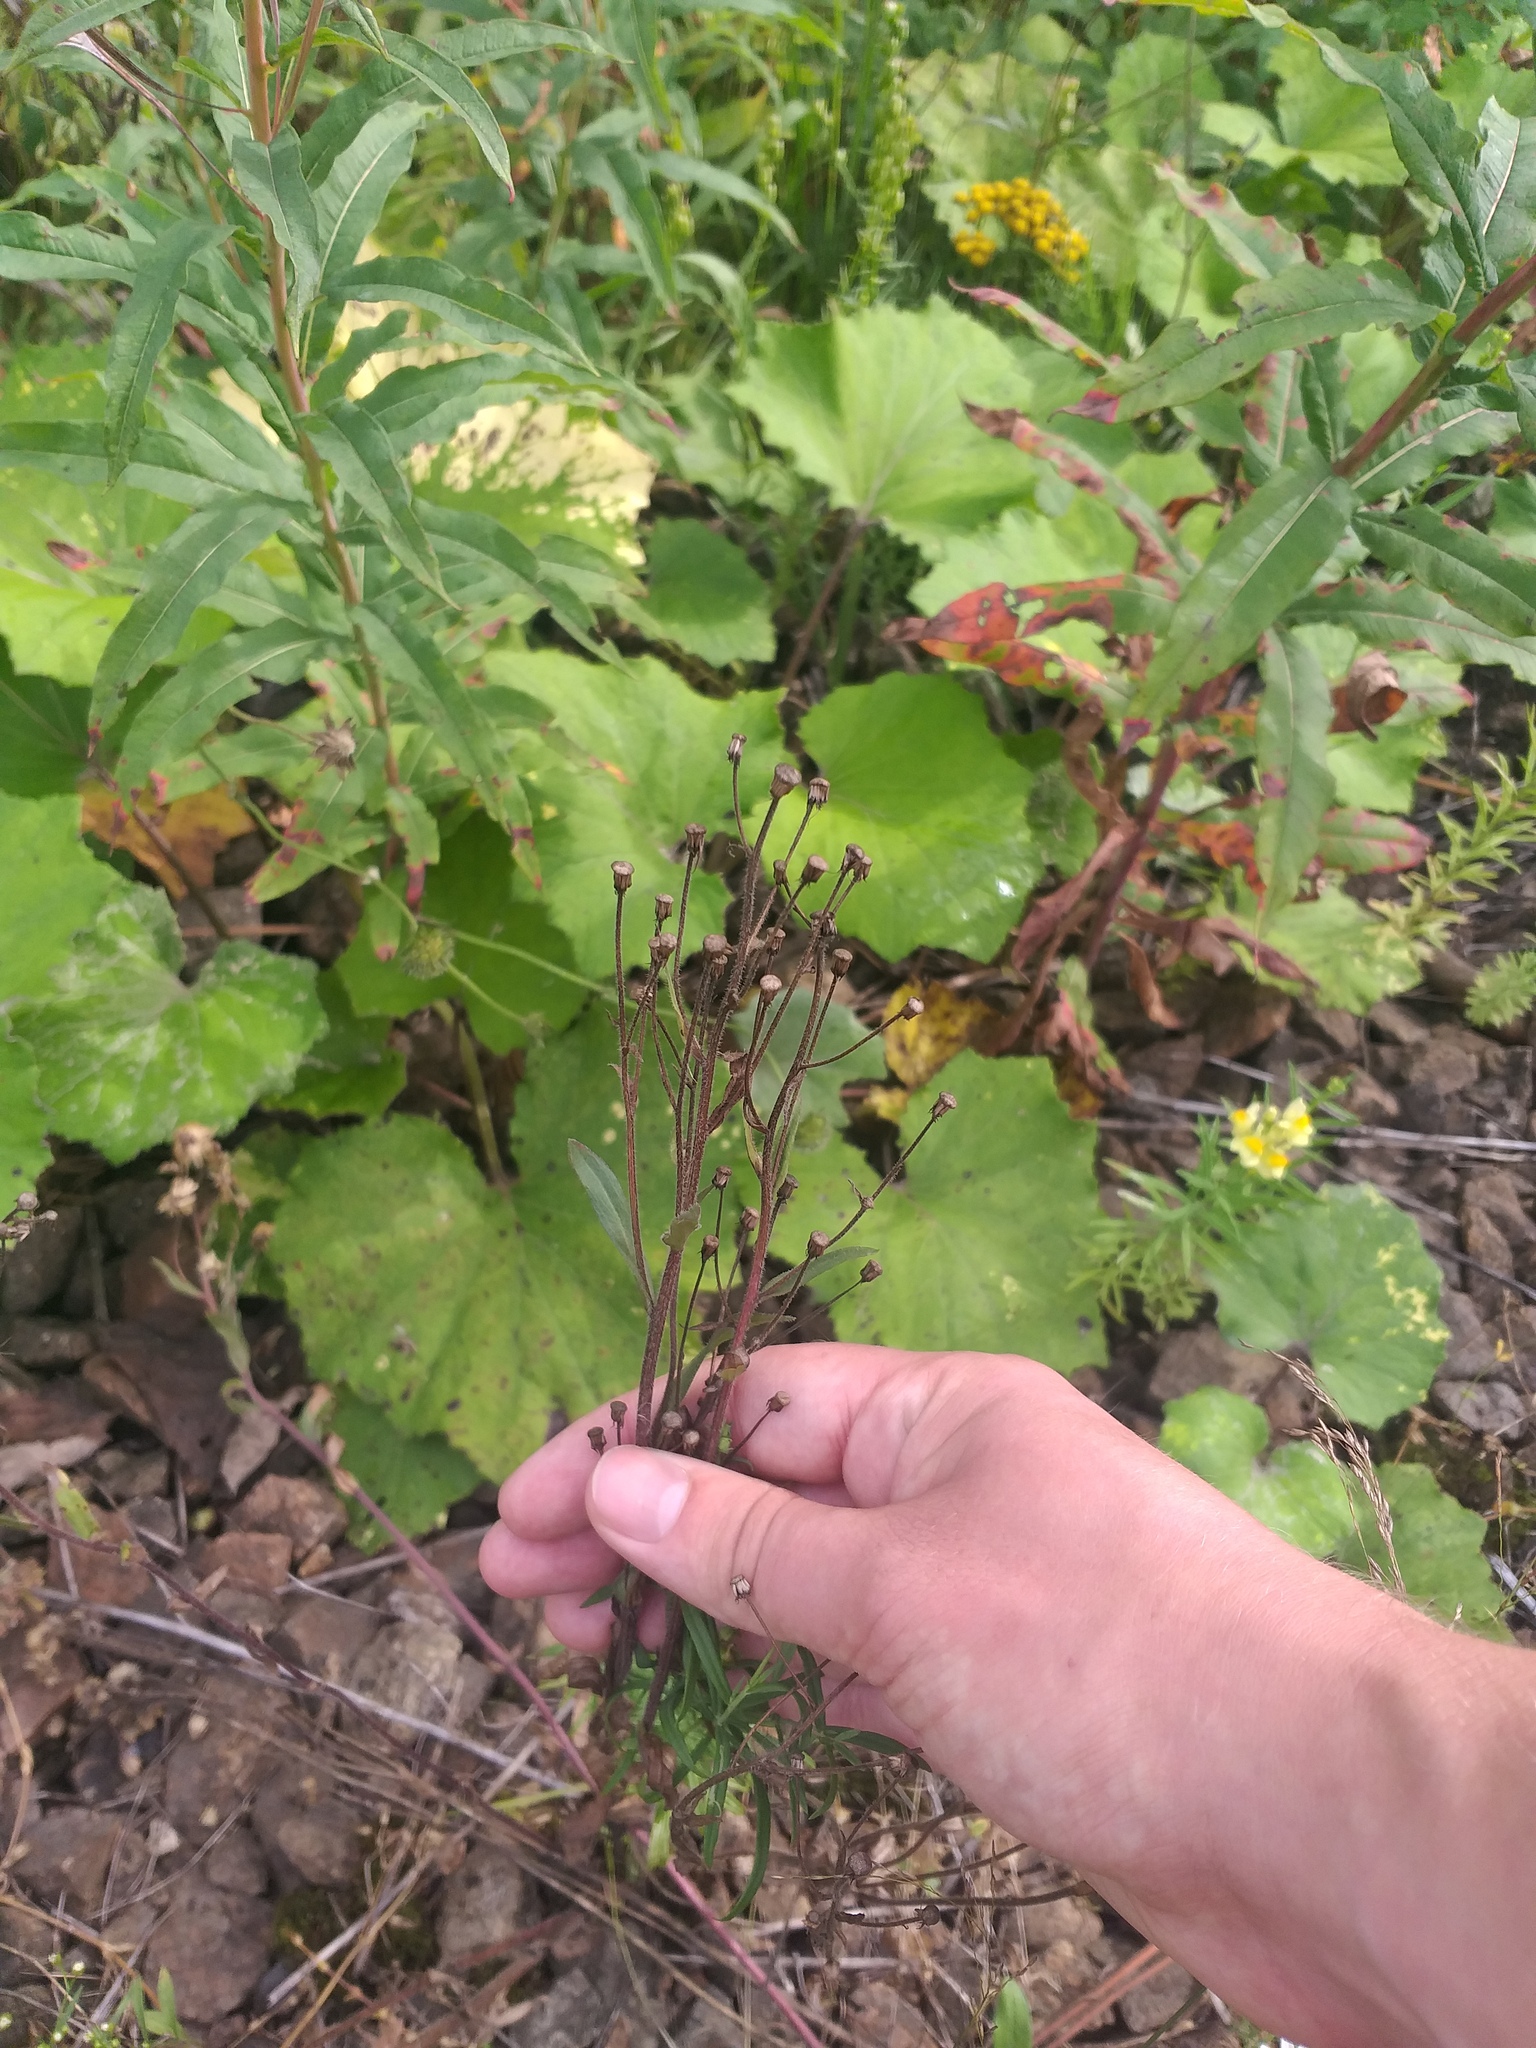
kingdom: Plantae
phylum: Tracheophyta
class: Magnoliopsida
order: Asterales
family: Asteraceae
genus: Erigeron
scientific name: Erigeron acris
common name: Blue fleabane
